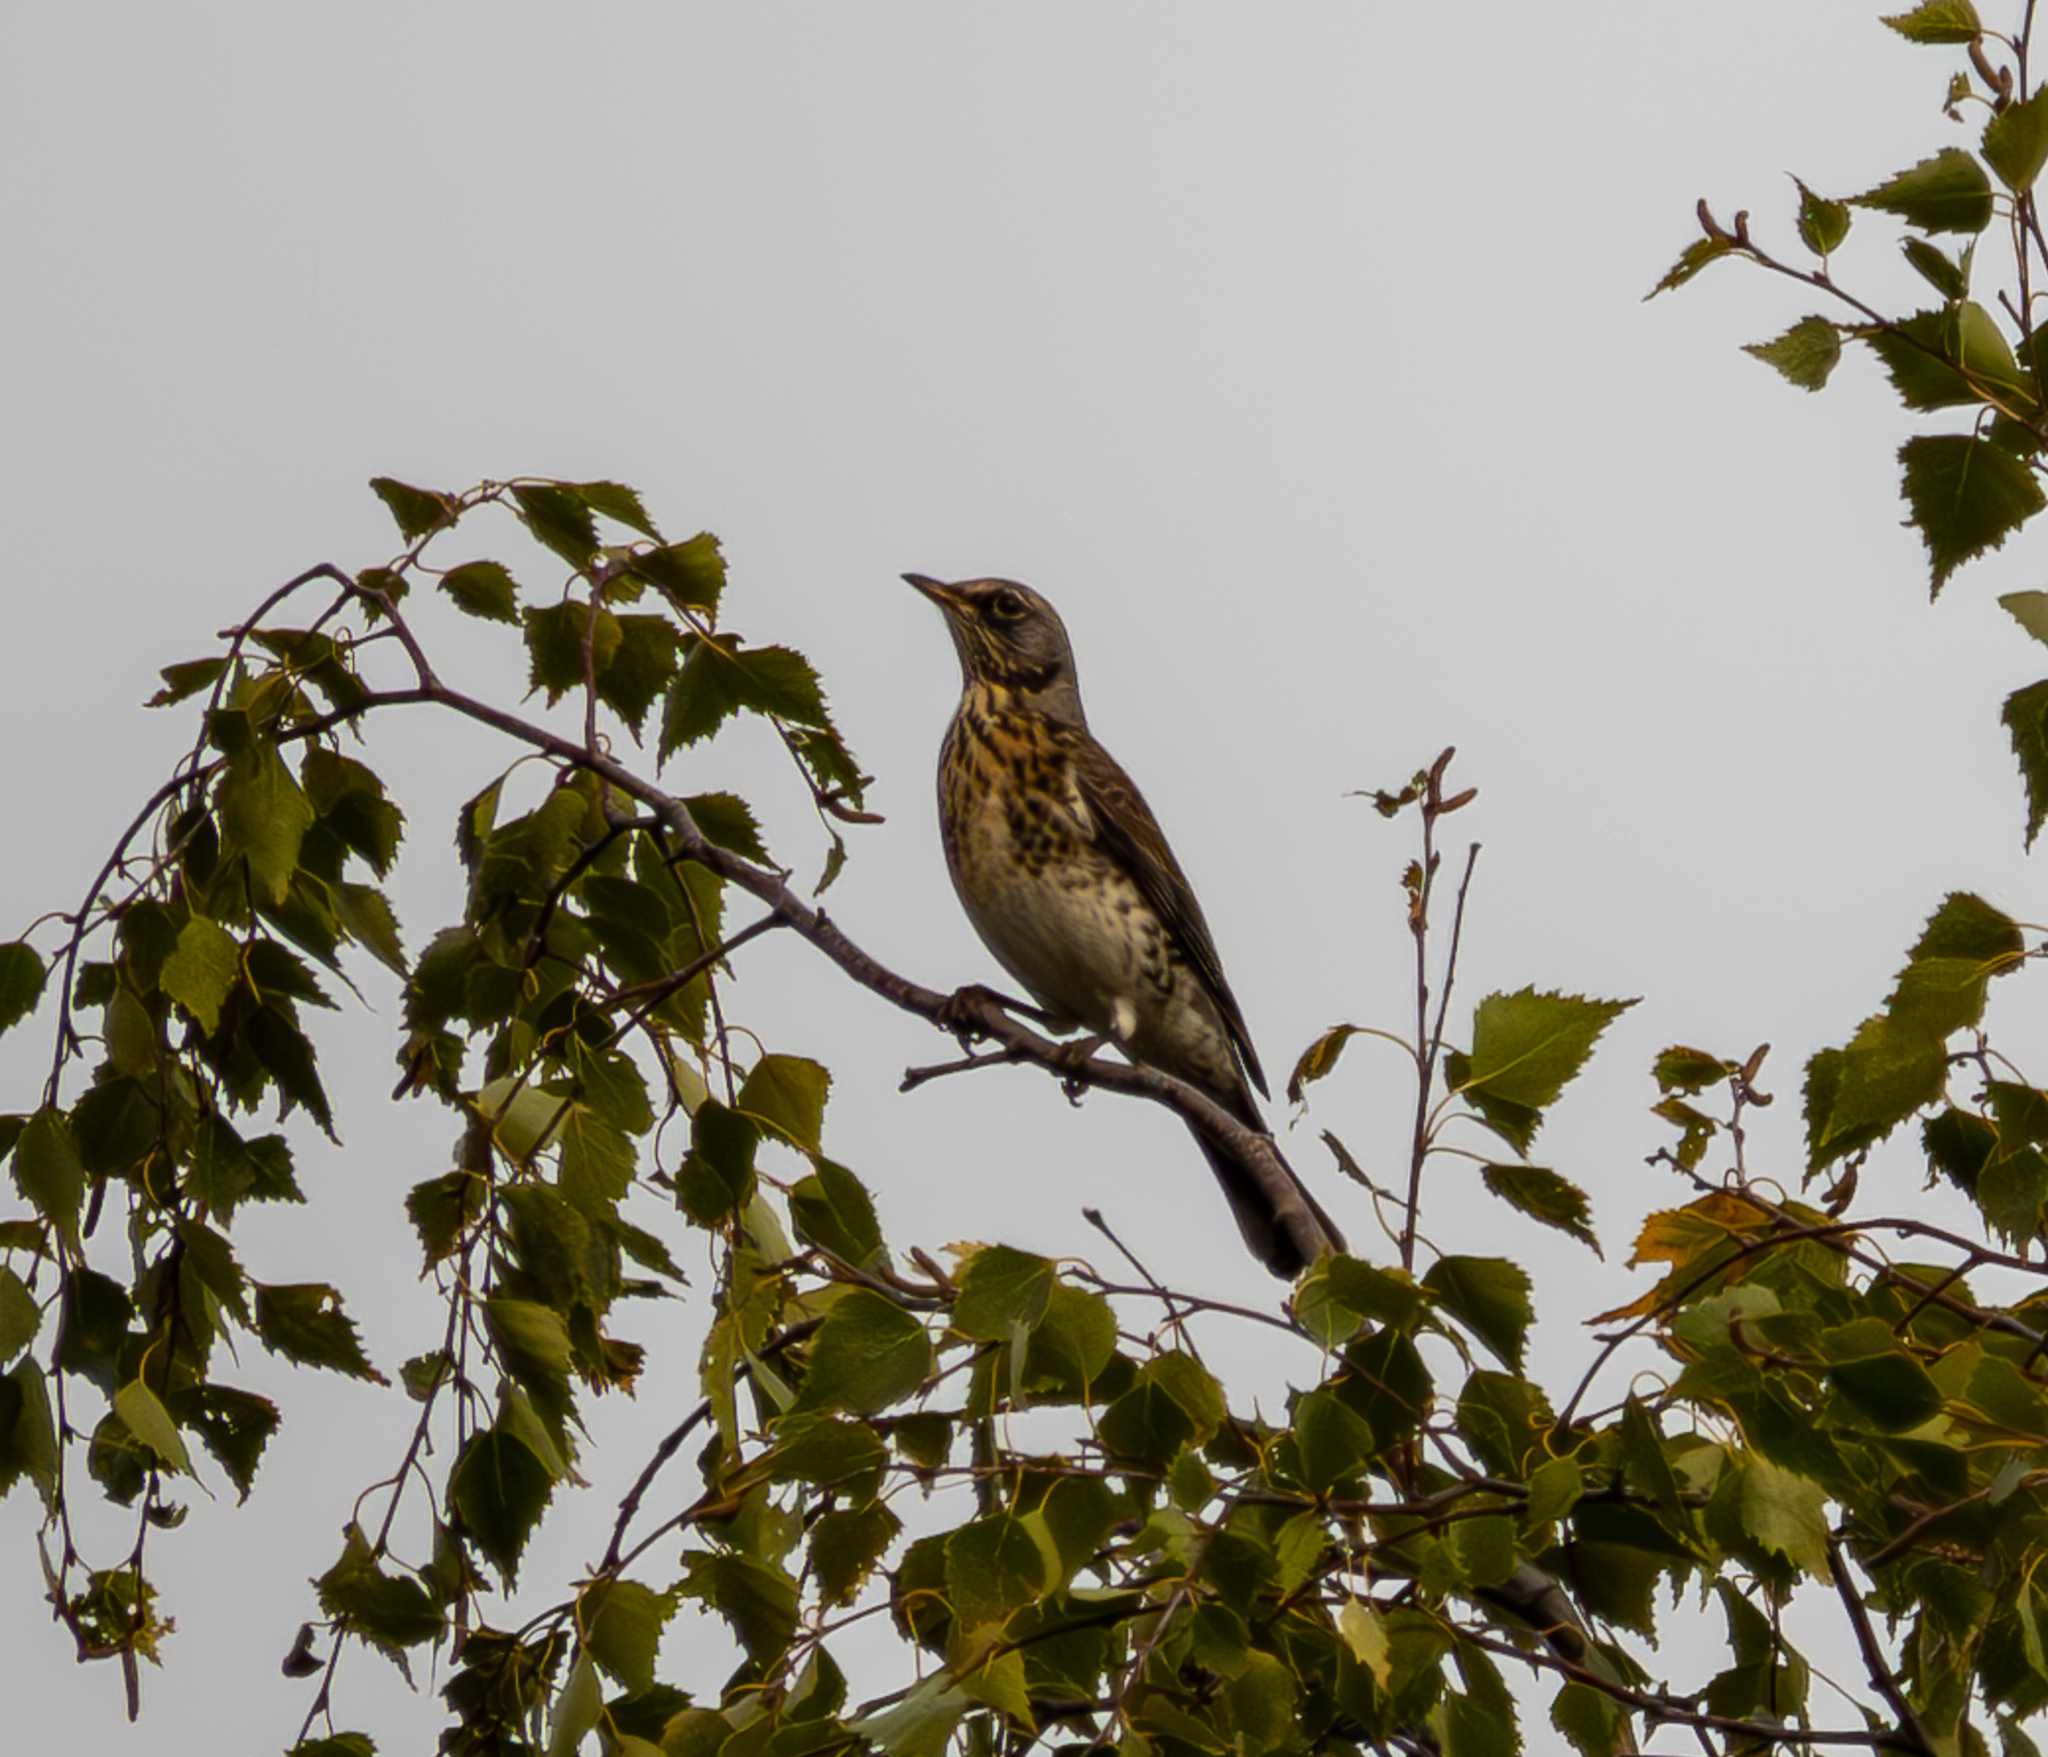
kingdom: Animalia
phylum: Chordata
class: Aves
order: Passeriformes
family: Turdidae
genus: Turdus
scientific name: Turdus pilaris
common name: Fieldfare
